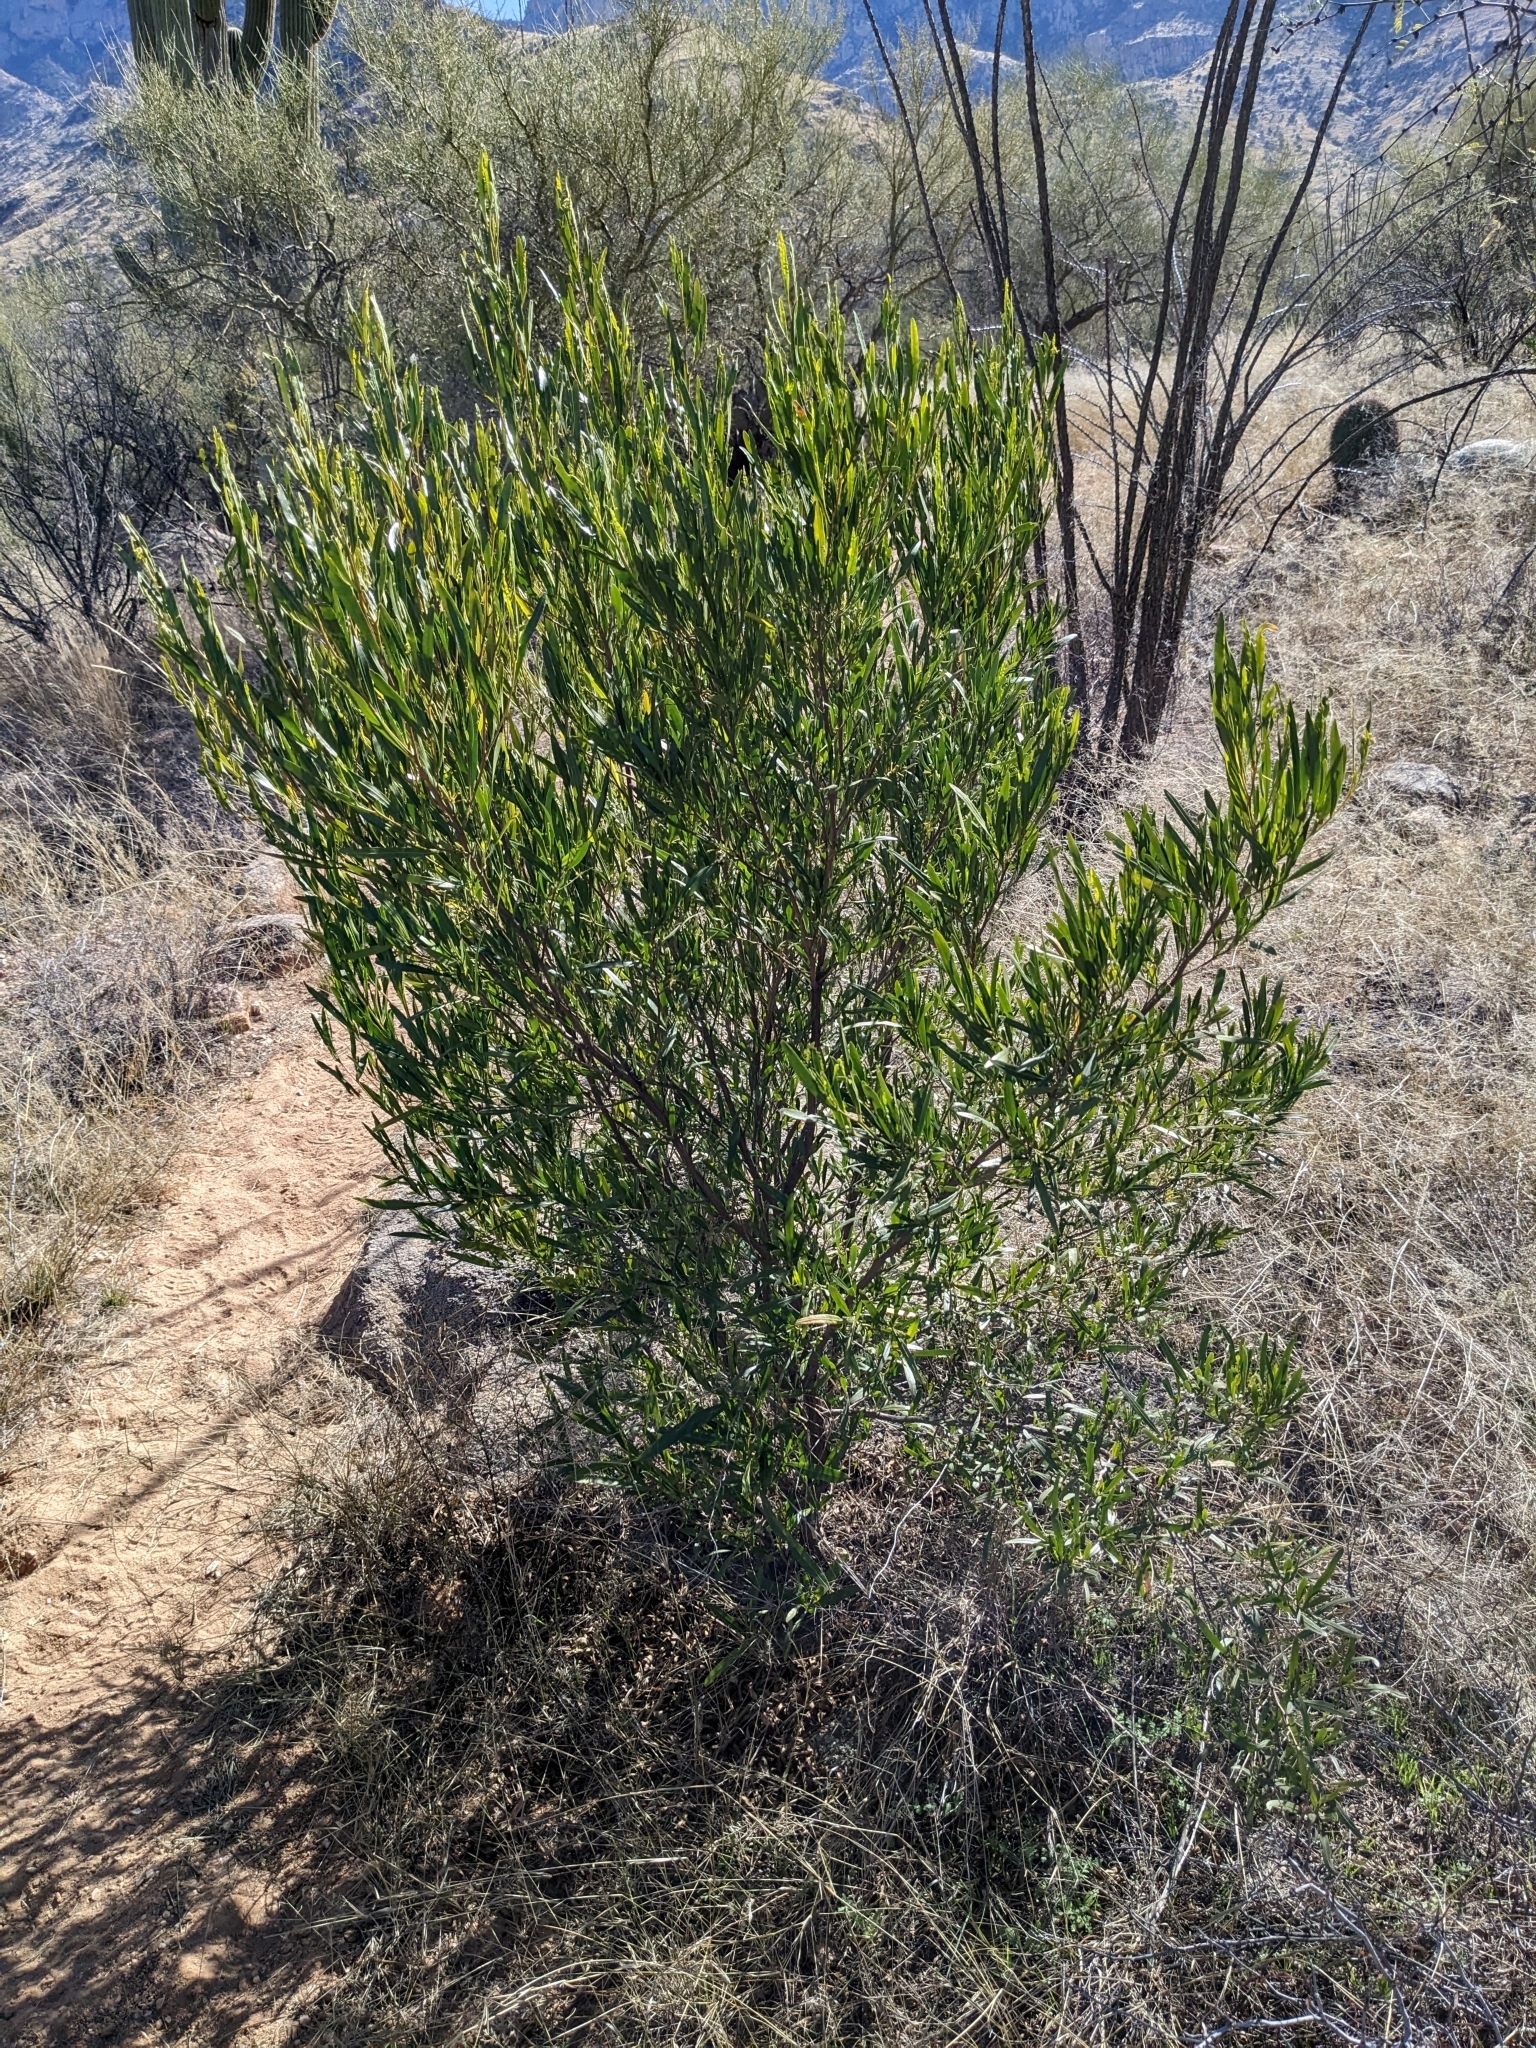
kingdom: Plantae
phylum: Tracheophyta
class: Magnoliopsida
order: Sapindales
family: Sapindaceae
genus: Dodonaea
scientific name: Dodonaea viscosa
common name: Hopbush
